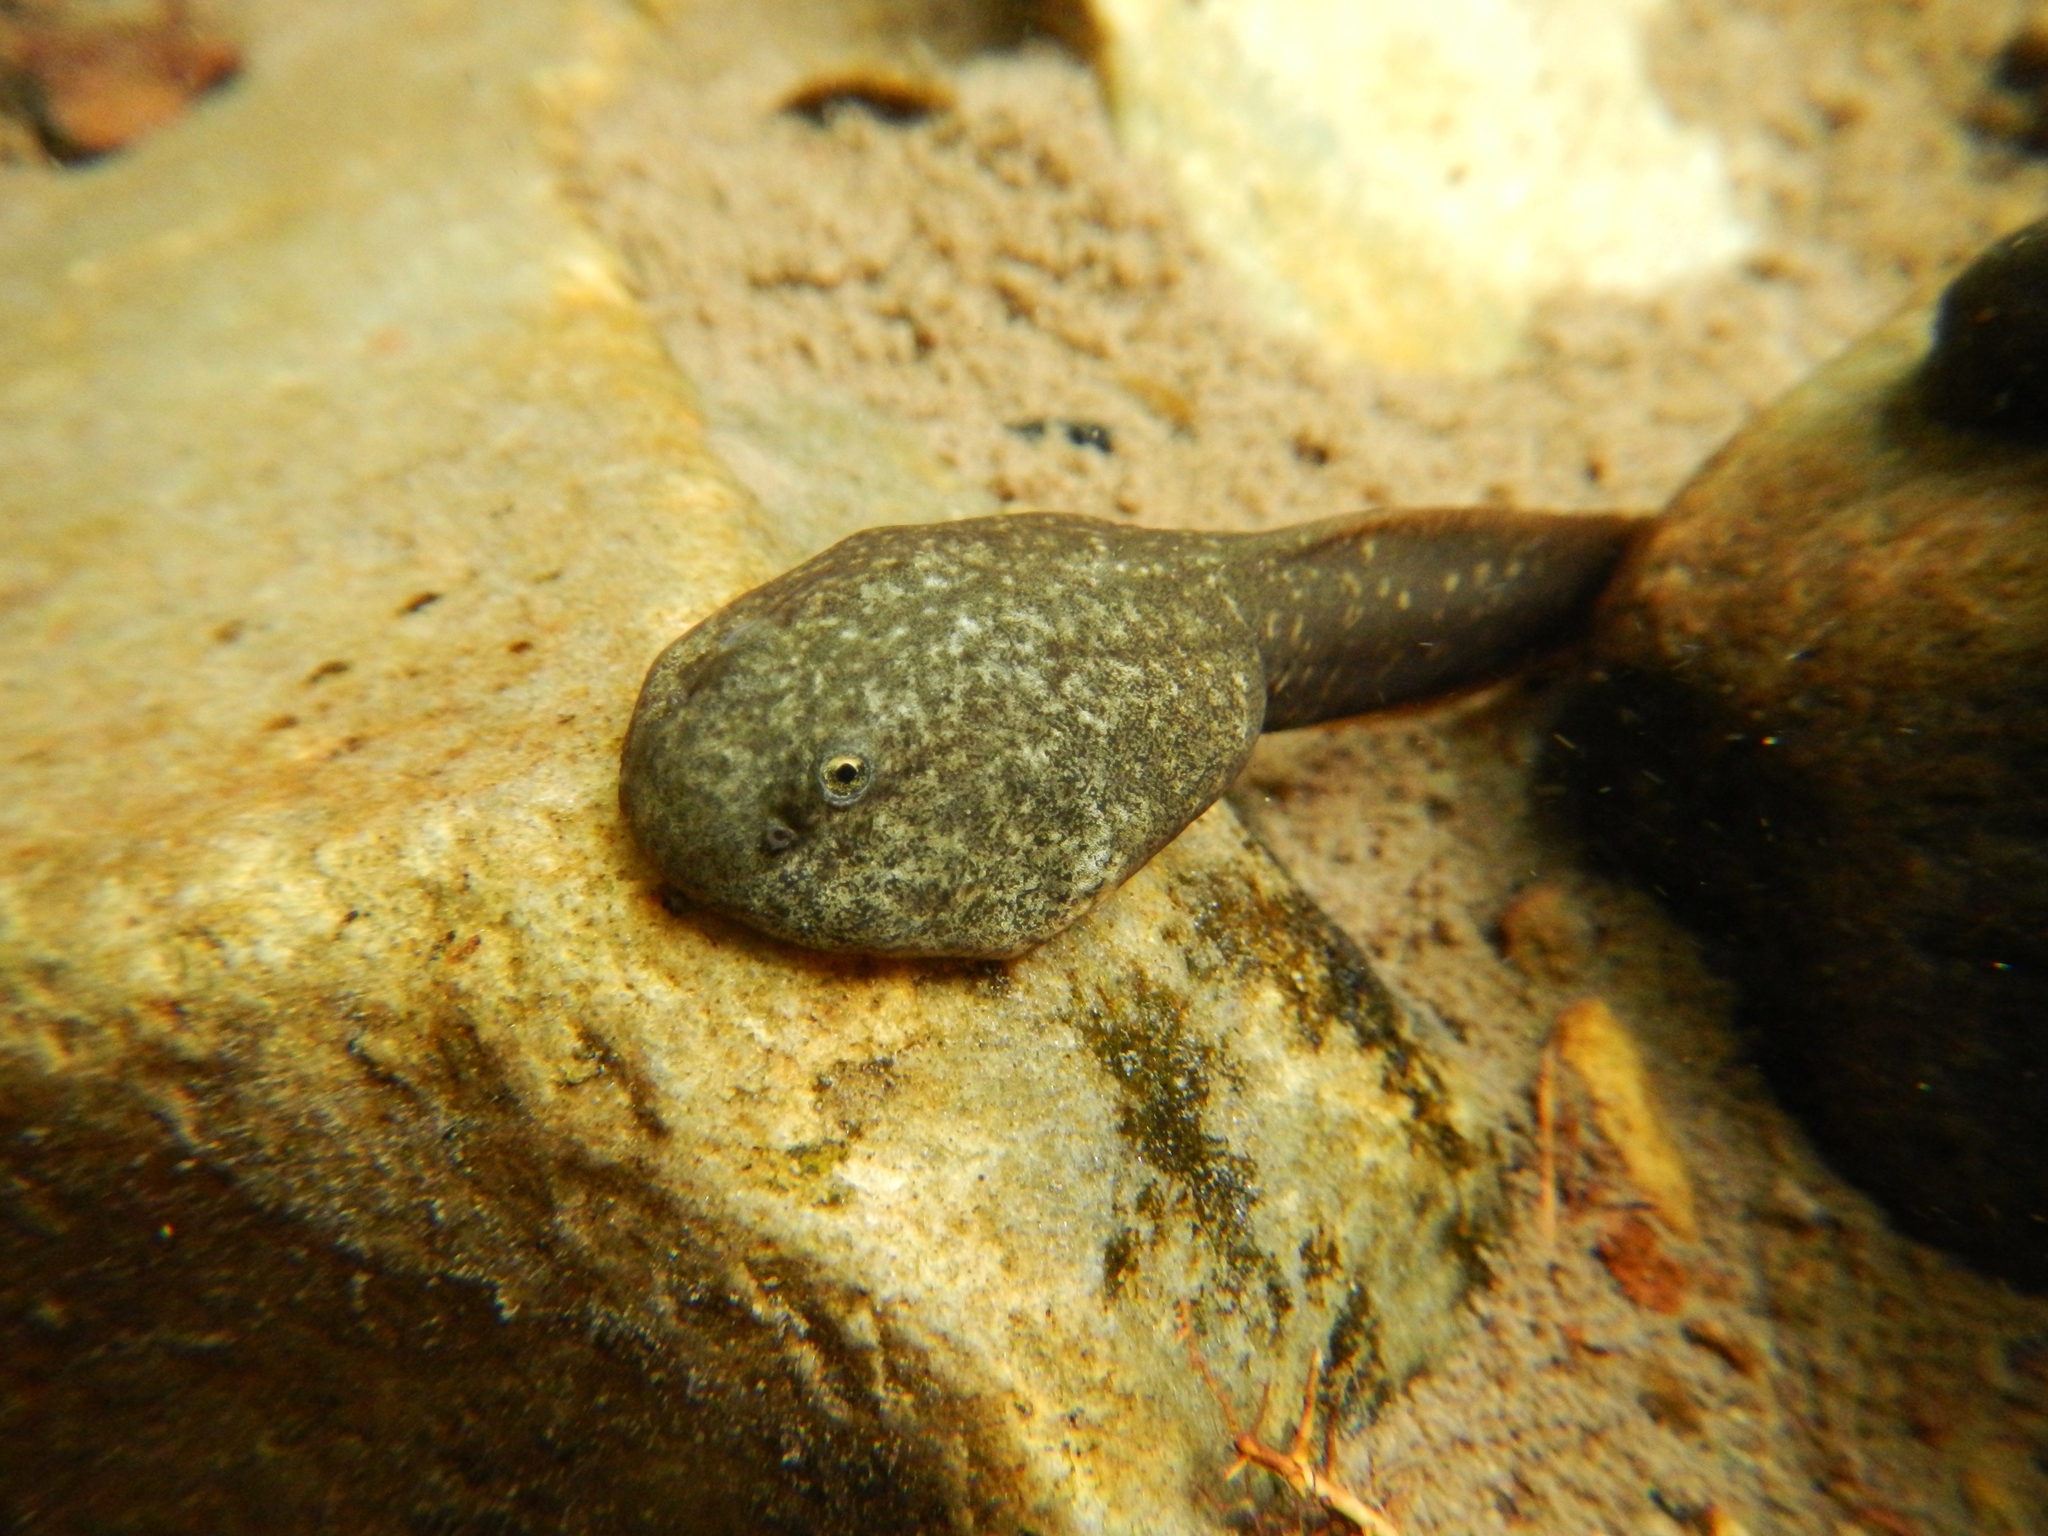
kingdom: Animalia
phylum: Chordata
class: Amphibia
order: Anura
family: Ascaphidae
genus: Ascaphus
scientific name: Ascaphus montanus
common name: Rocky mountain tailed frog
